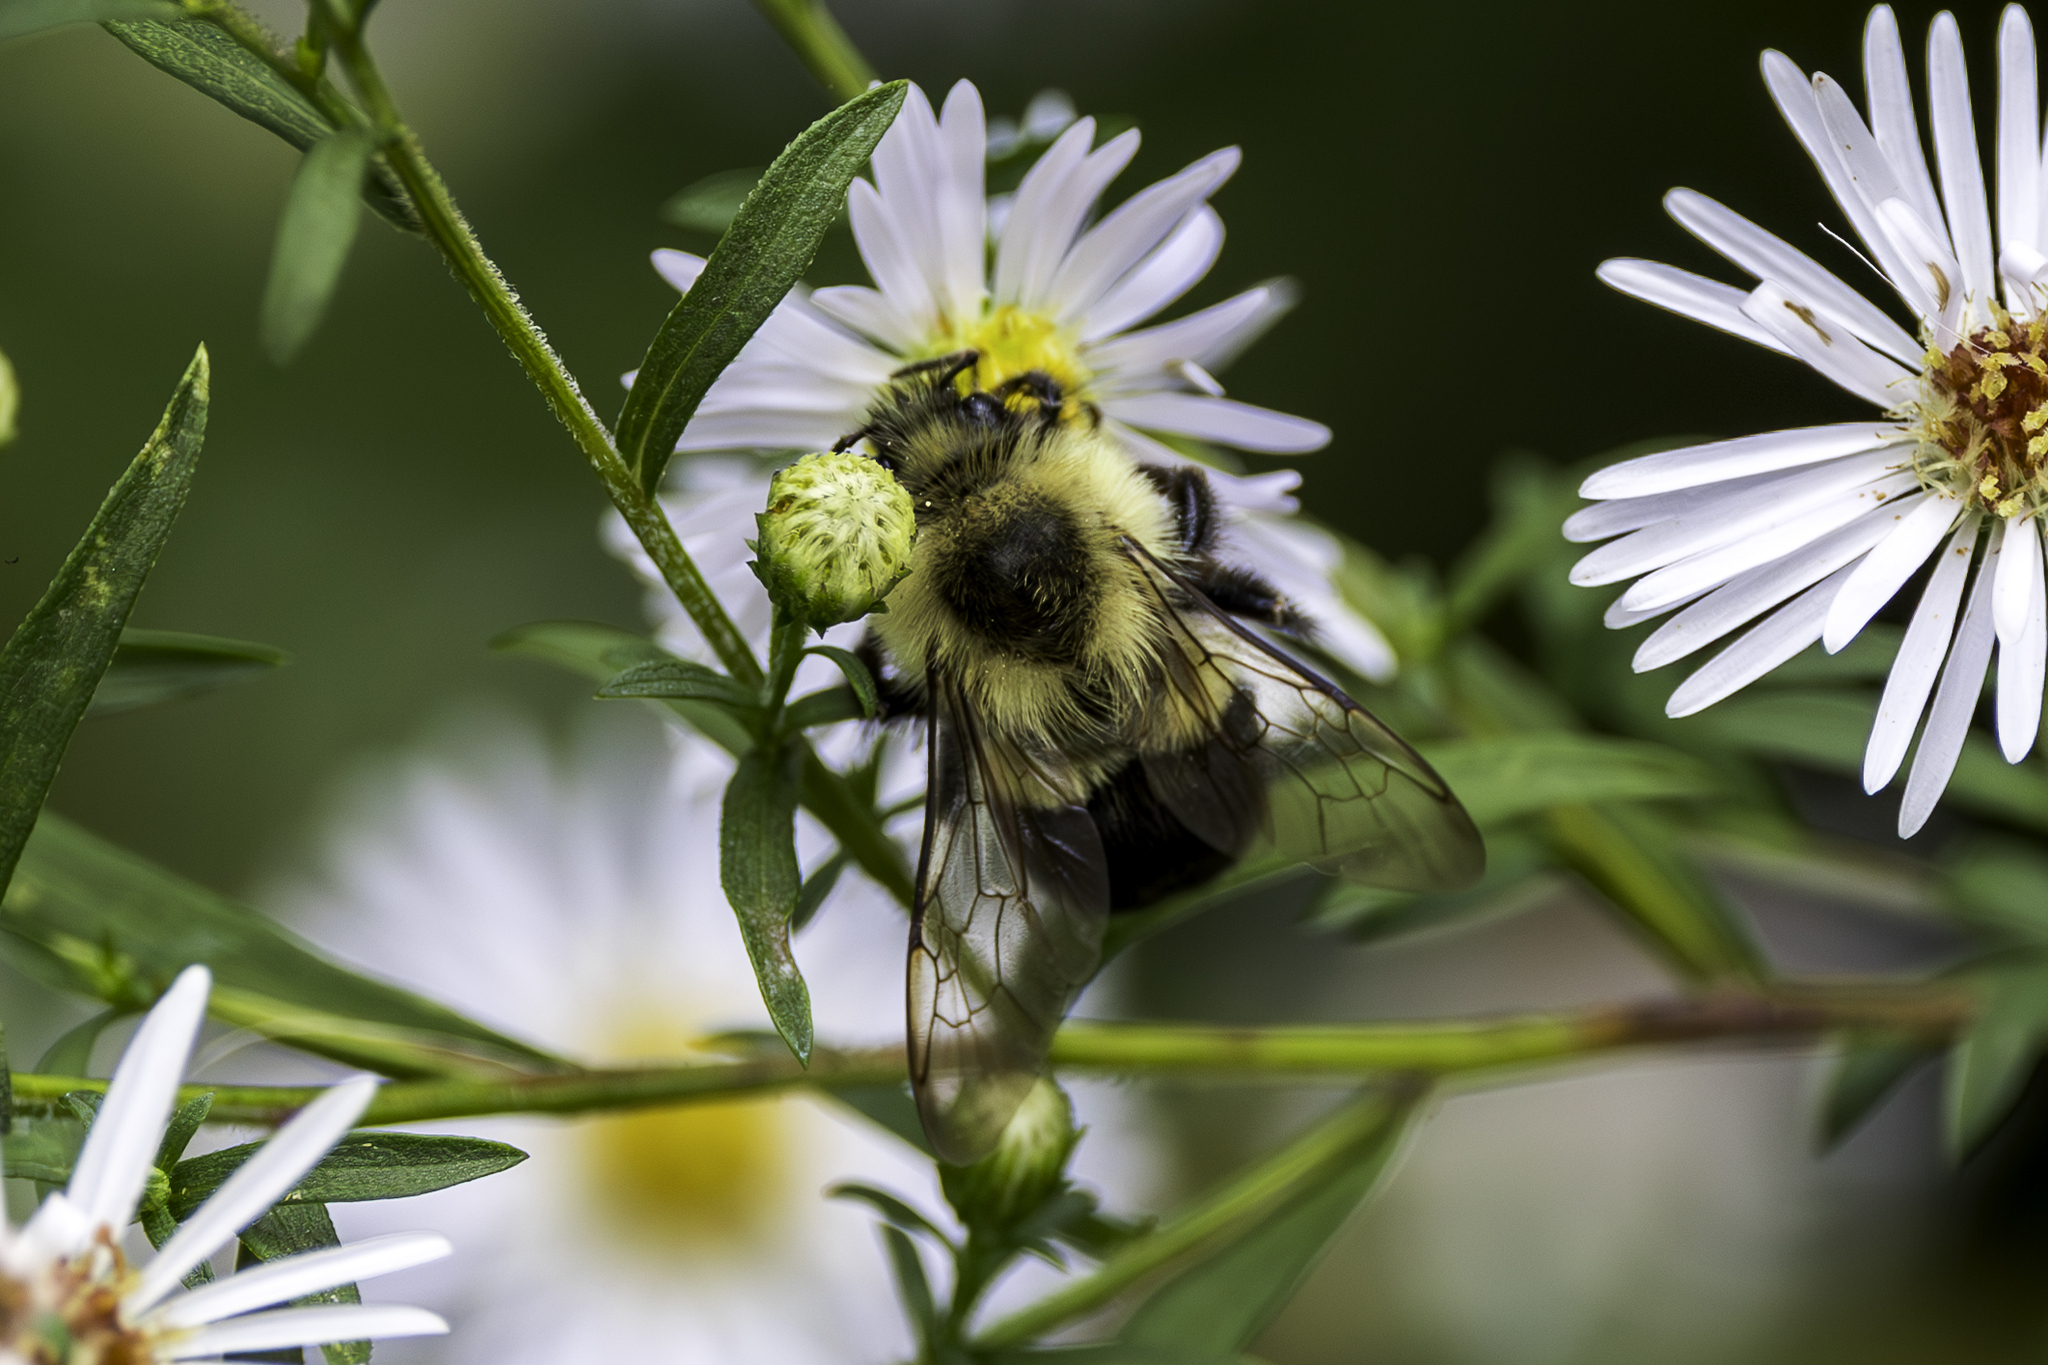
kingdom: Animalia
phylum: Arthropoda
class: Insecta
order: Hymenoptera
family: Apidae
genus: Bombus
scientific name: Bombus impatiens
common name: Common eastern bumble bee
